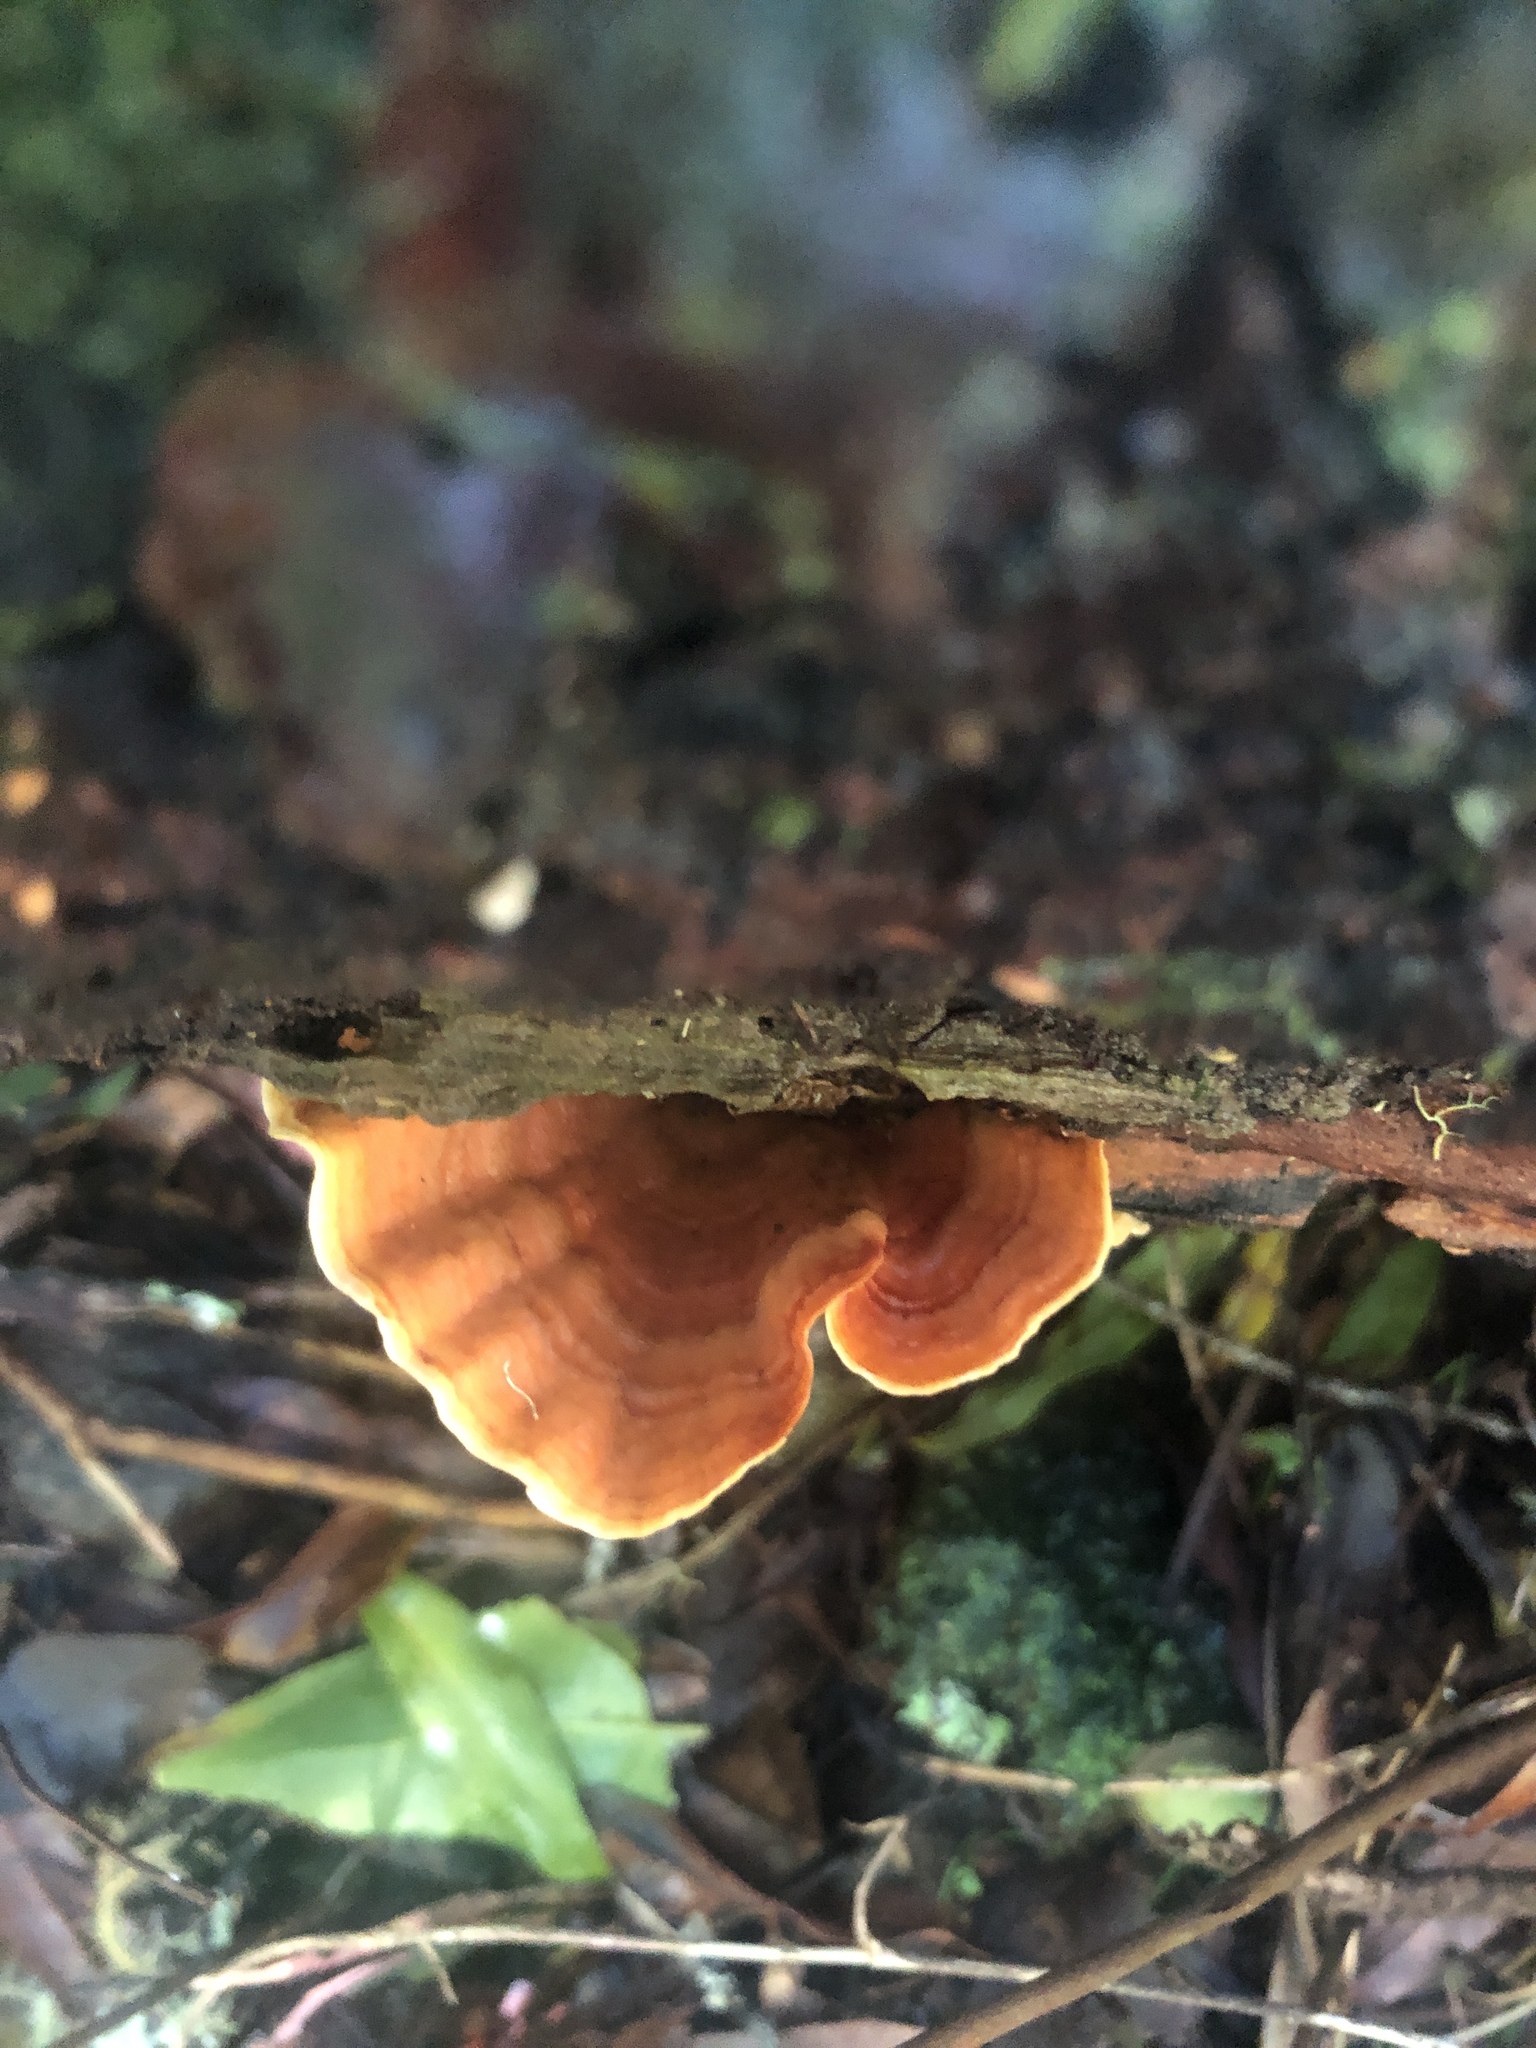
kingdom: Fungi
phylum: Basidiomycota
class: Agaricomycetes
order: Russulales
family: Stereaceae
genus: Stereum
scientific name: Stereum versicolor
